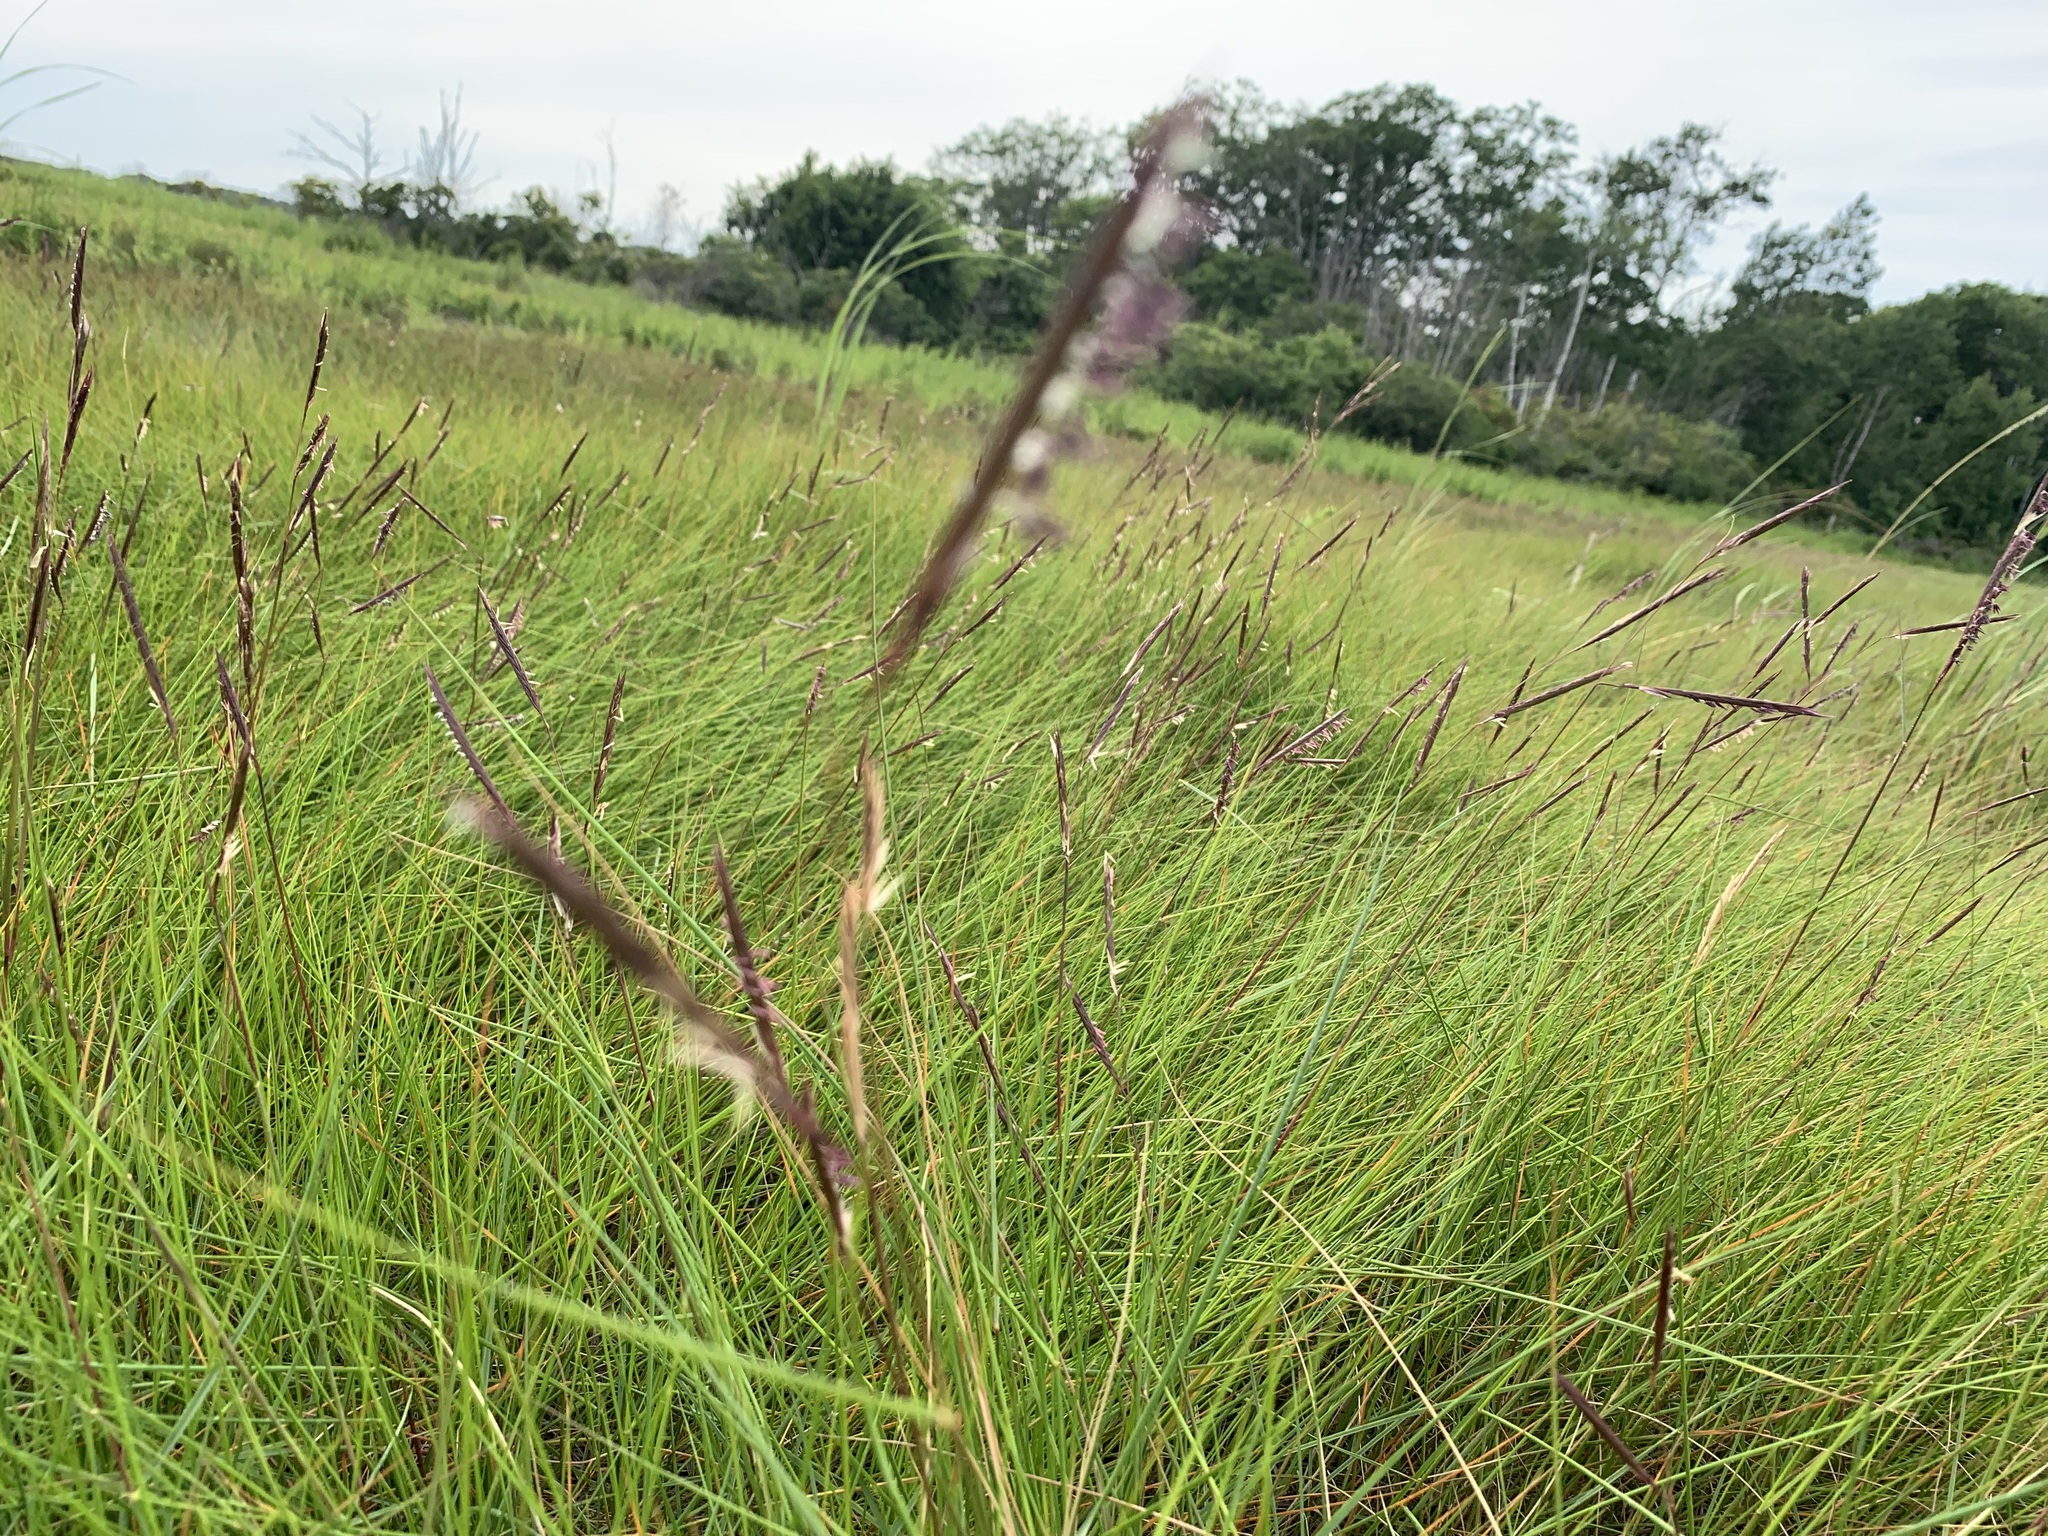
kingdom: Plantae
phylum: Tracheophyta
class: Liliopsida
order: Poales
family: Poaceae
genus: Sporobolus
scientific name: Sporobolus pumilus
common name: Highwater grass
